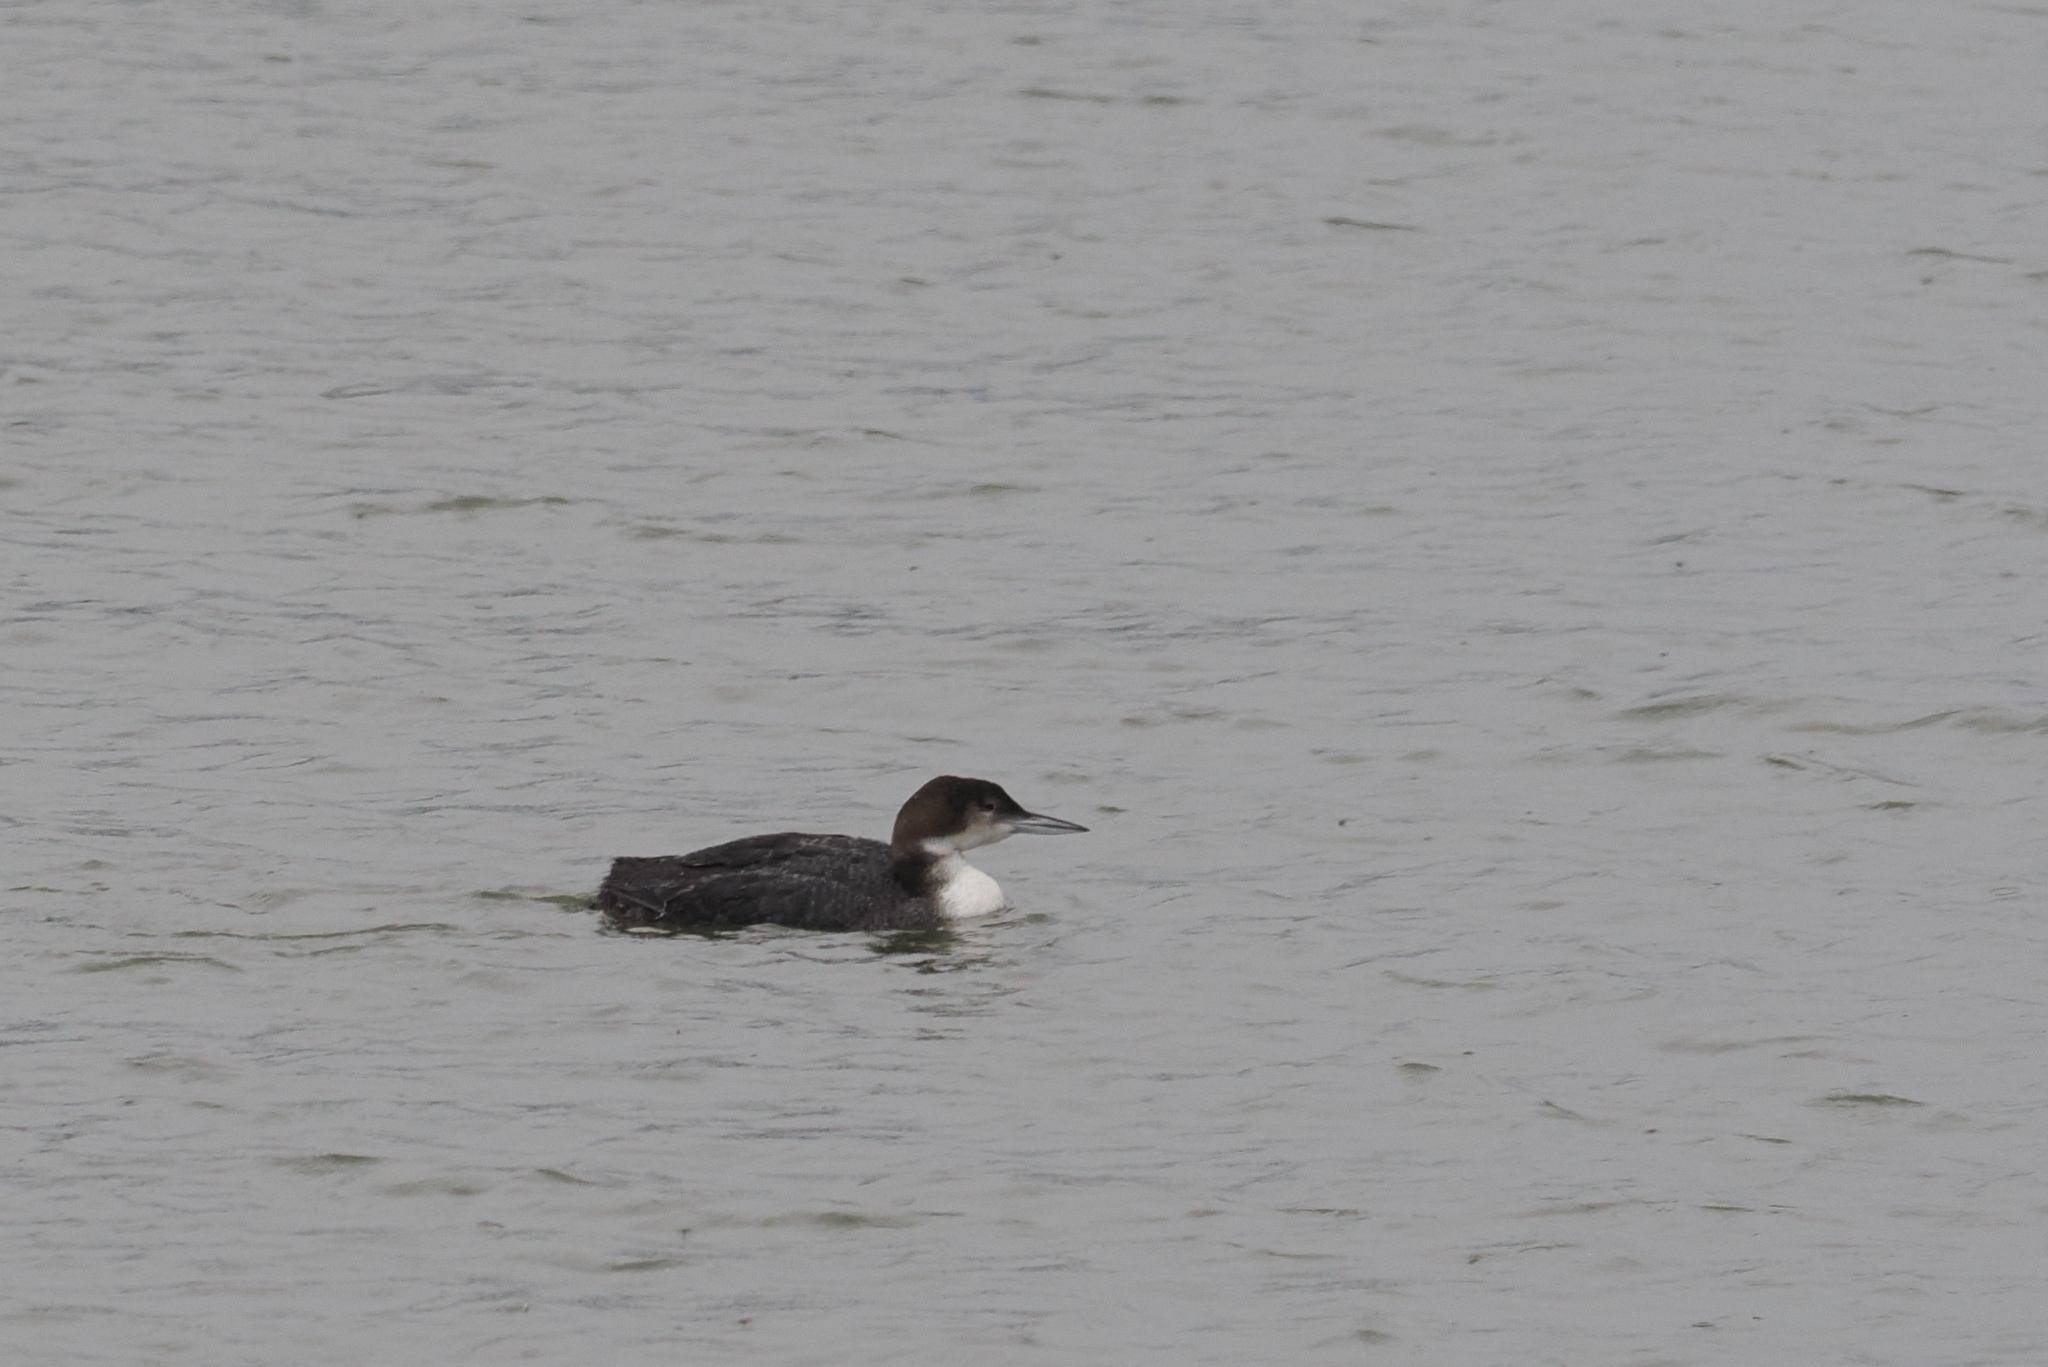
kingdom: Animalia
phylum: Chordata
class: Aves
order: Gaviiformes
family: Gaviidae
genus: Gavia
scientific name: Gavia immer
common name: Common loon
